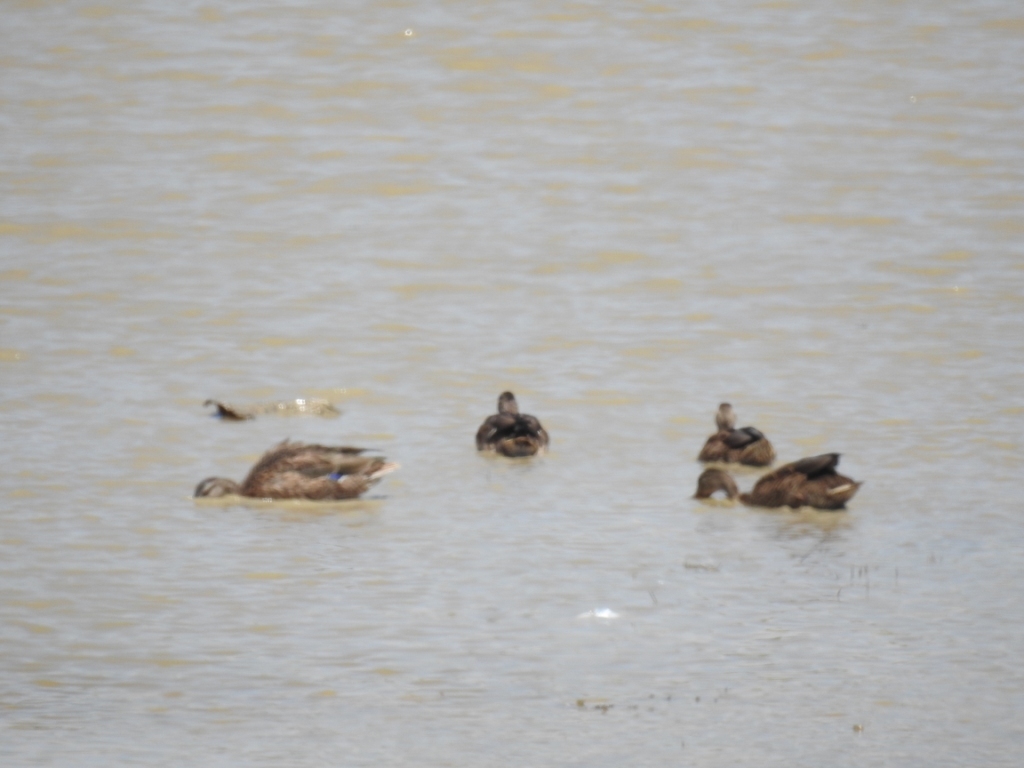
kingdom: Animalia
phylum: Chordata
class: Aves
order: Anseriformes
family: Anatidae
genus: Anas
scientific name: Anas platyrhynchos
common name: Mallard
